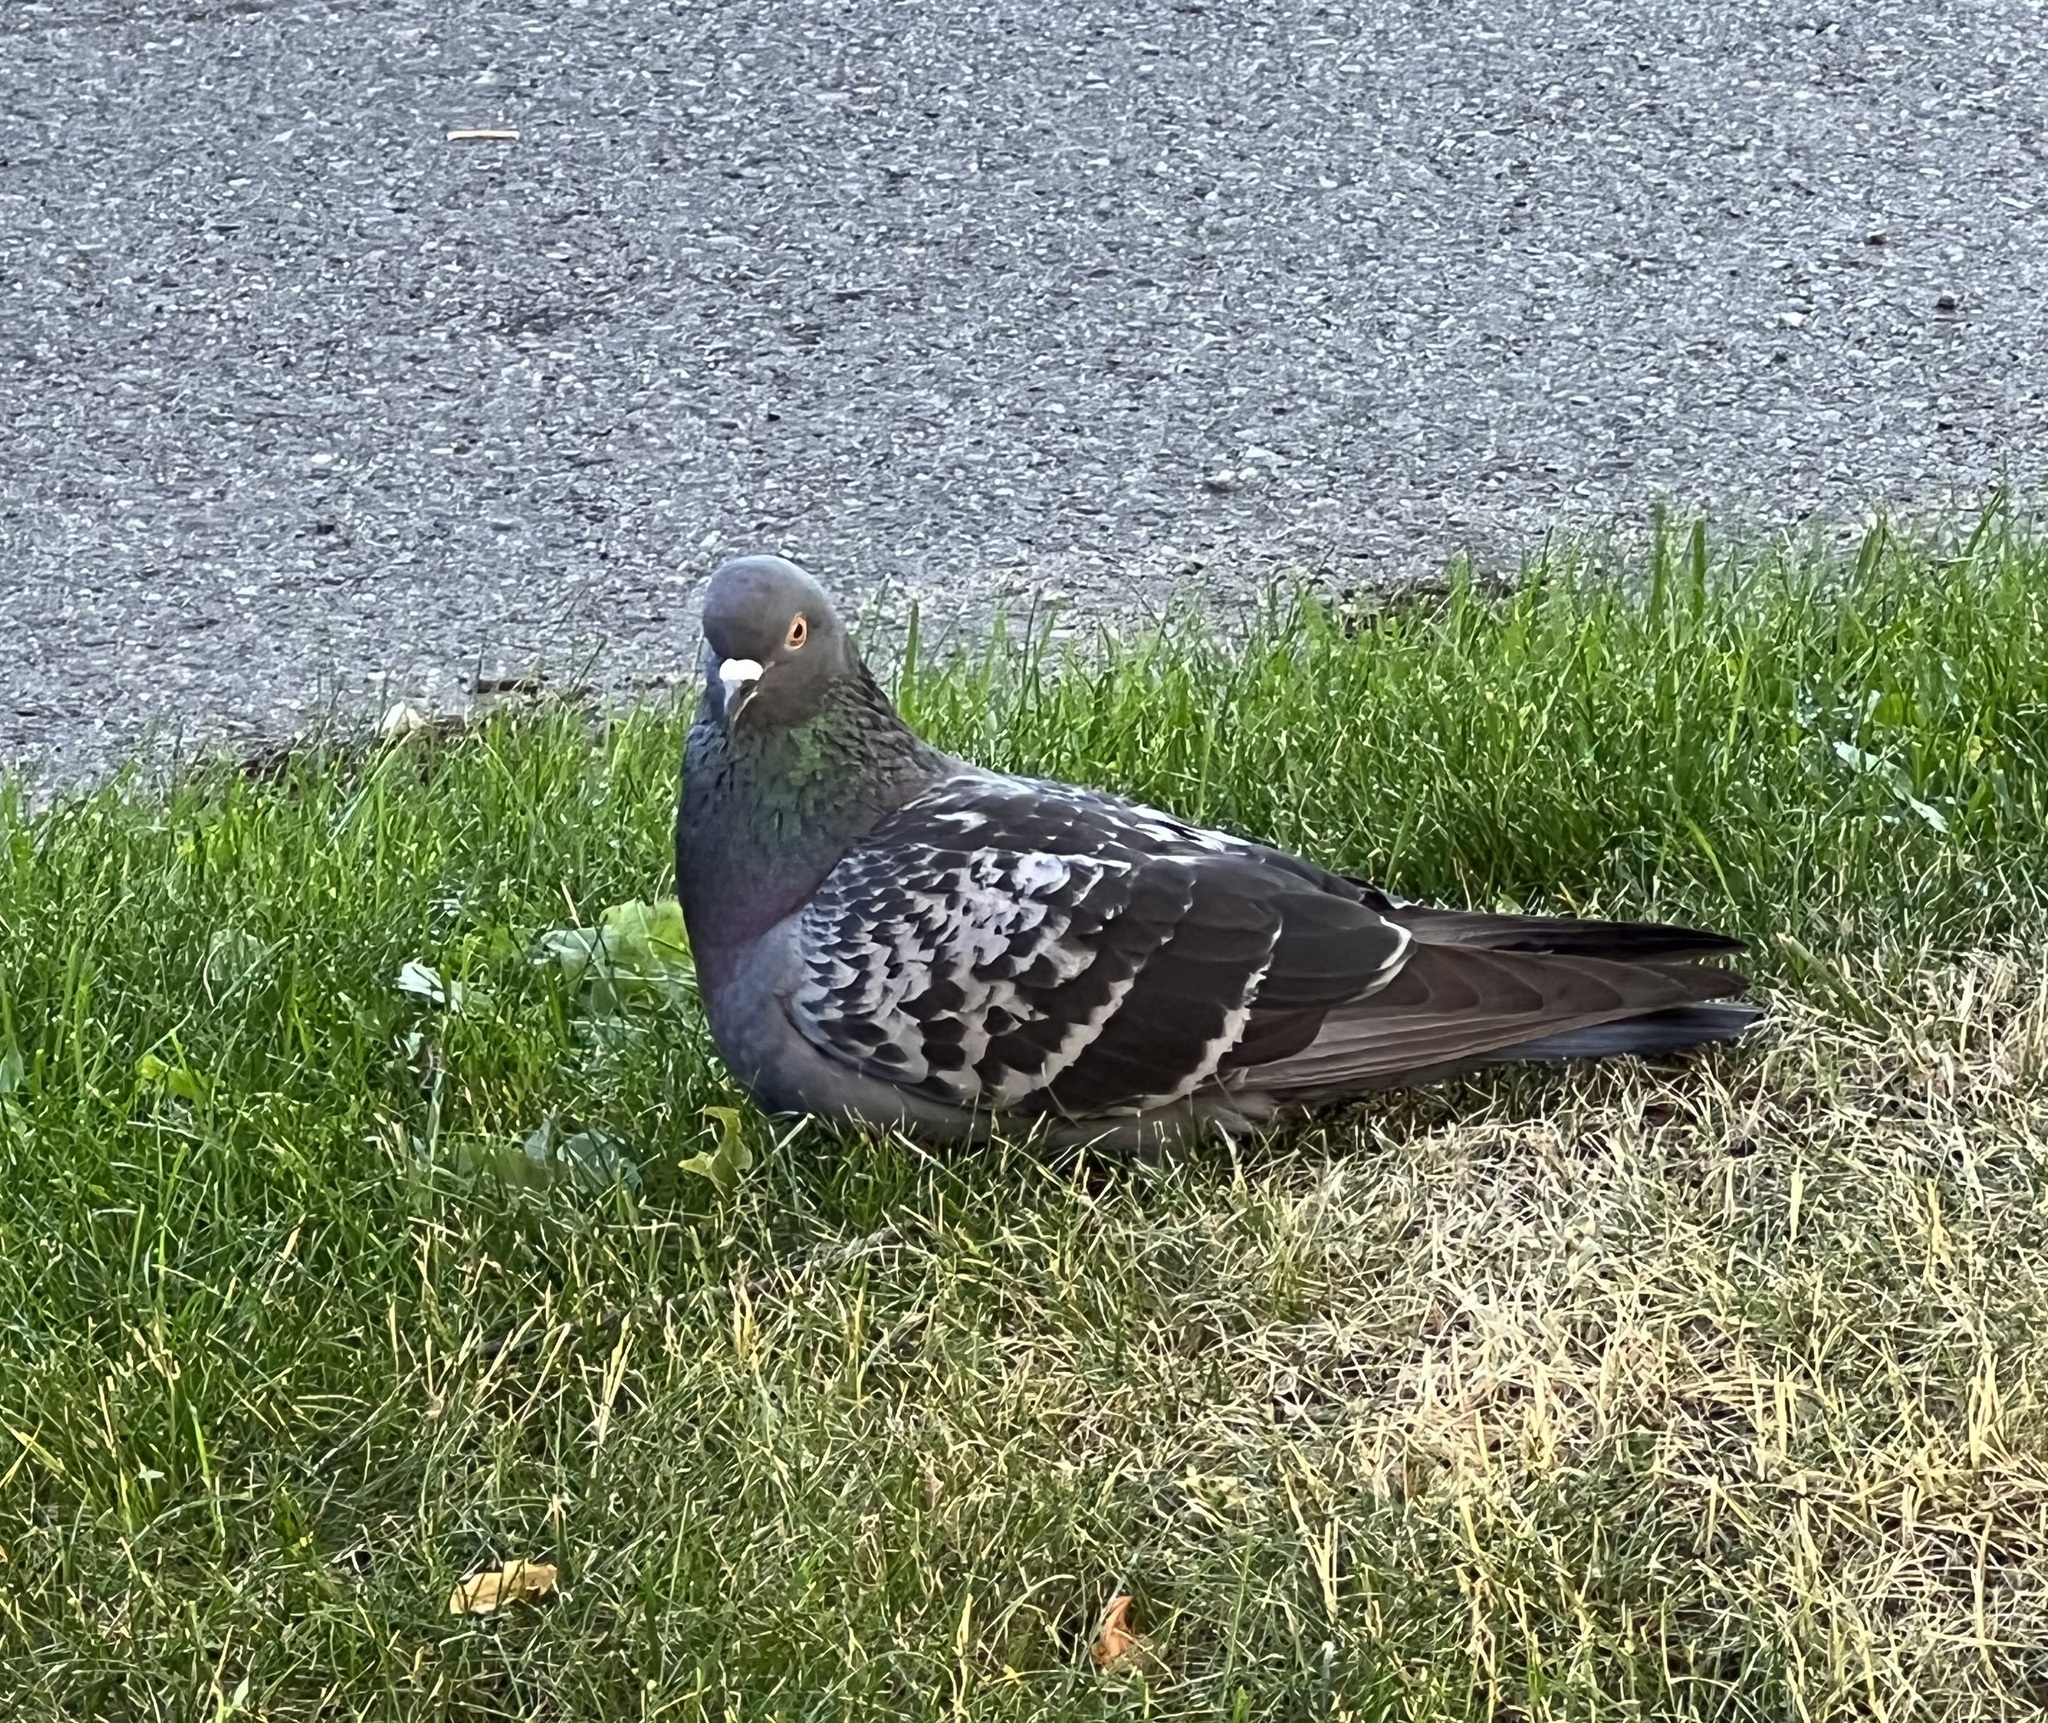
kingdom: Animalia
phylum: Chordata
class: Aves
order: Columbiformes
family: Columbidae
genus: Columba
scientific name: Columba livia
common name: Rock pigeon
